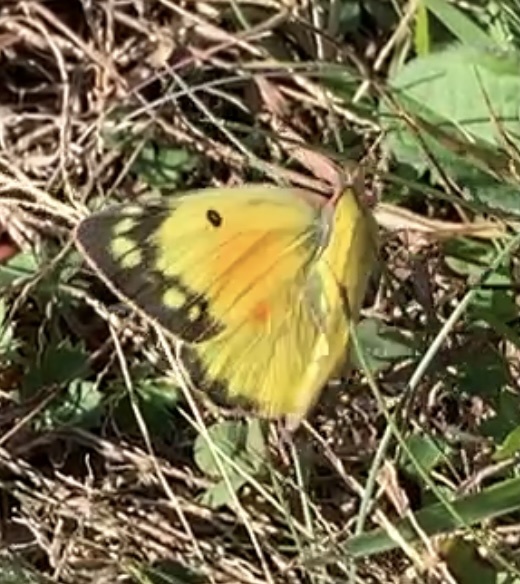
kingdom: Animalia
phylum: Arthropoda
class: Insecta
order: Lepidoptera
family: Pieridae
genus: Colias
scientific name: Colias eurytheme
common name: Alfalfa butterfly
